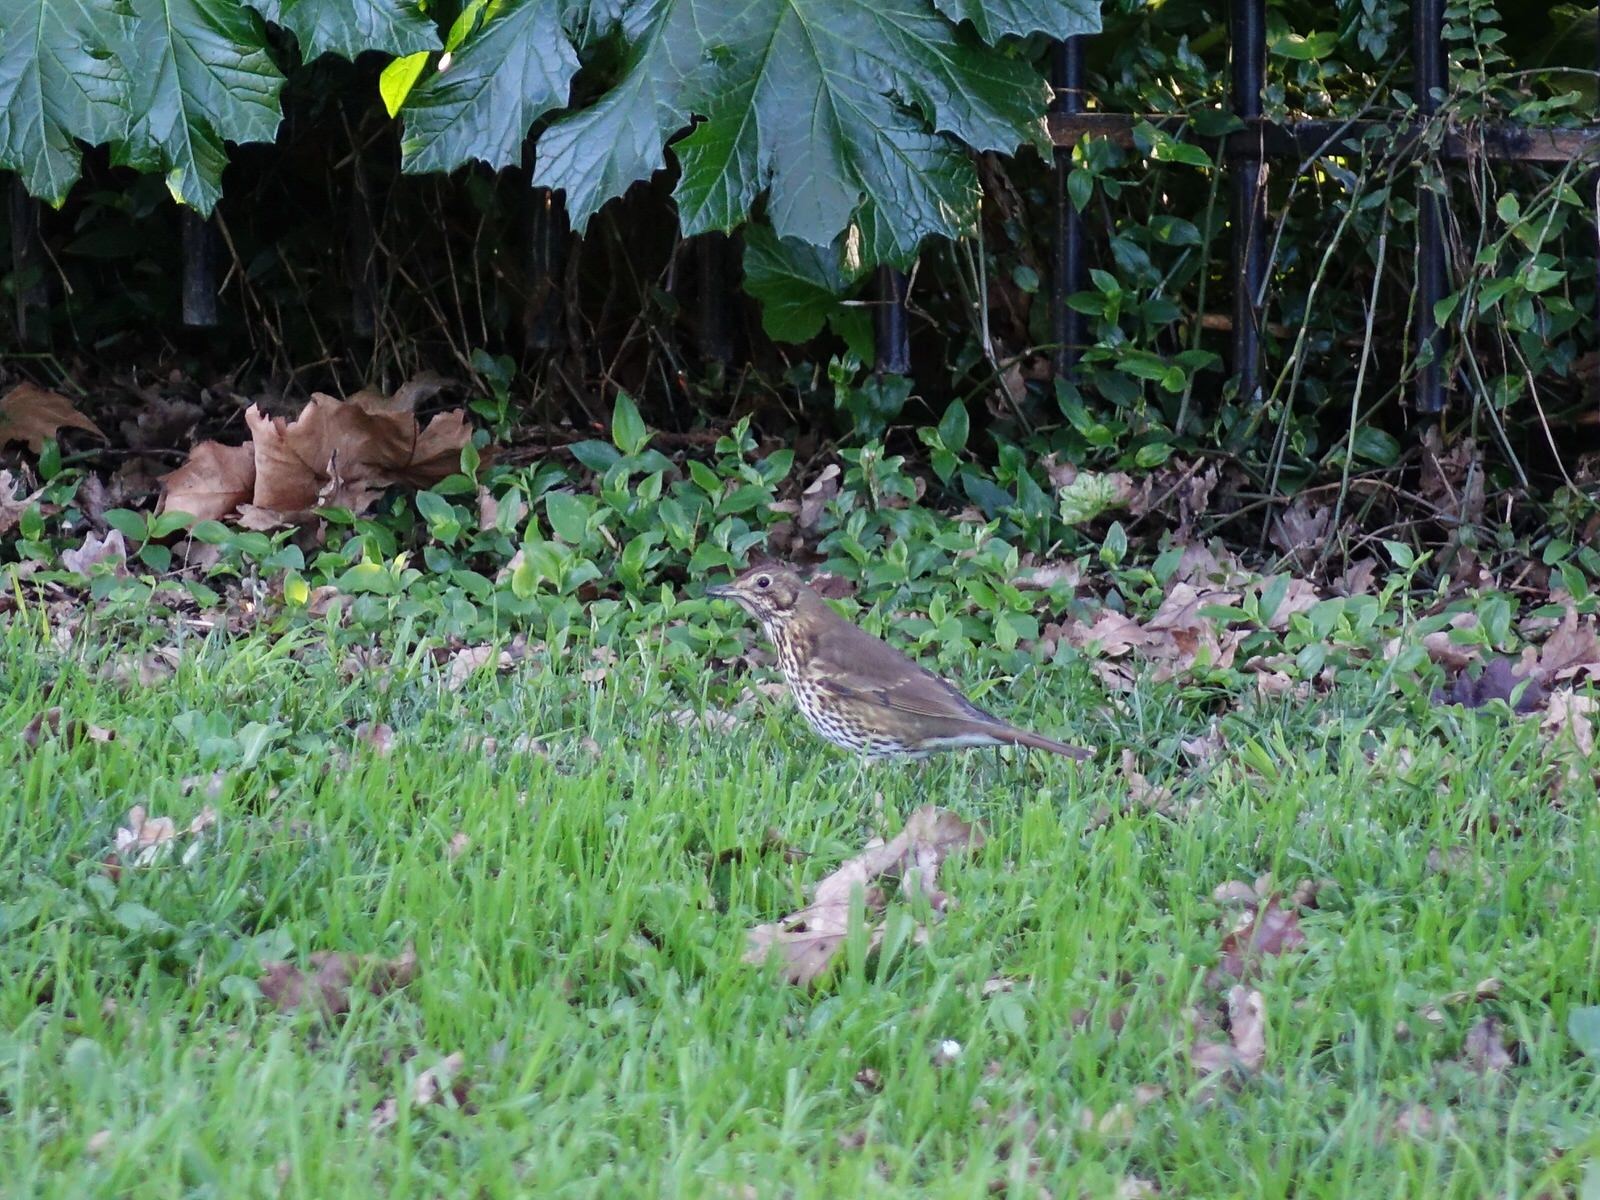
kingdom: Animalia
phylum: Chordata
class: Aves
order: Passeriformes
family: Turdidae
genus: Turdus
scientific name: Turdus philomelos
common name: Song thrush
